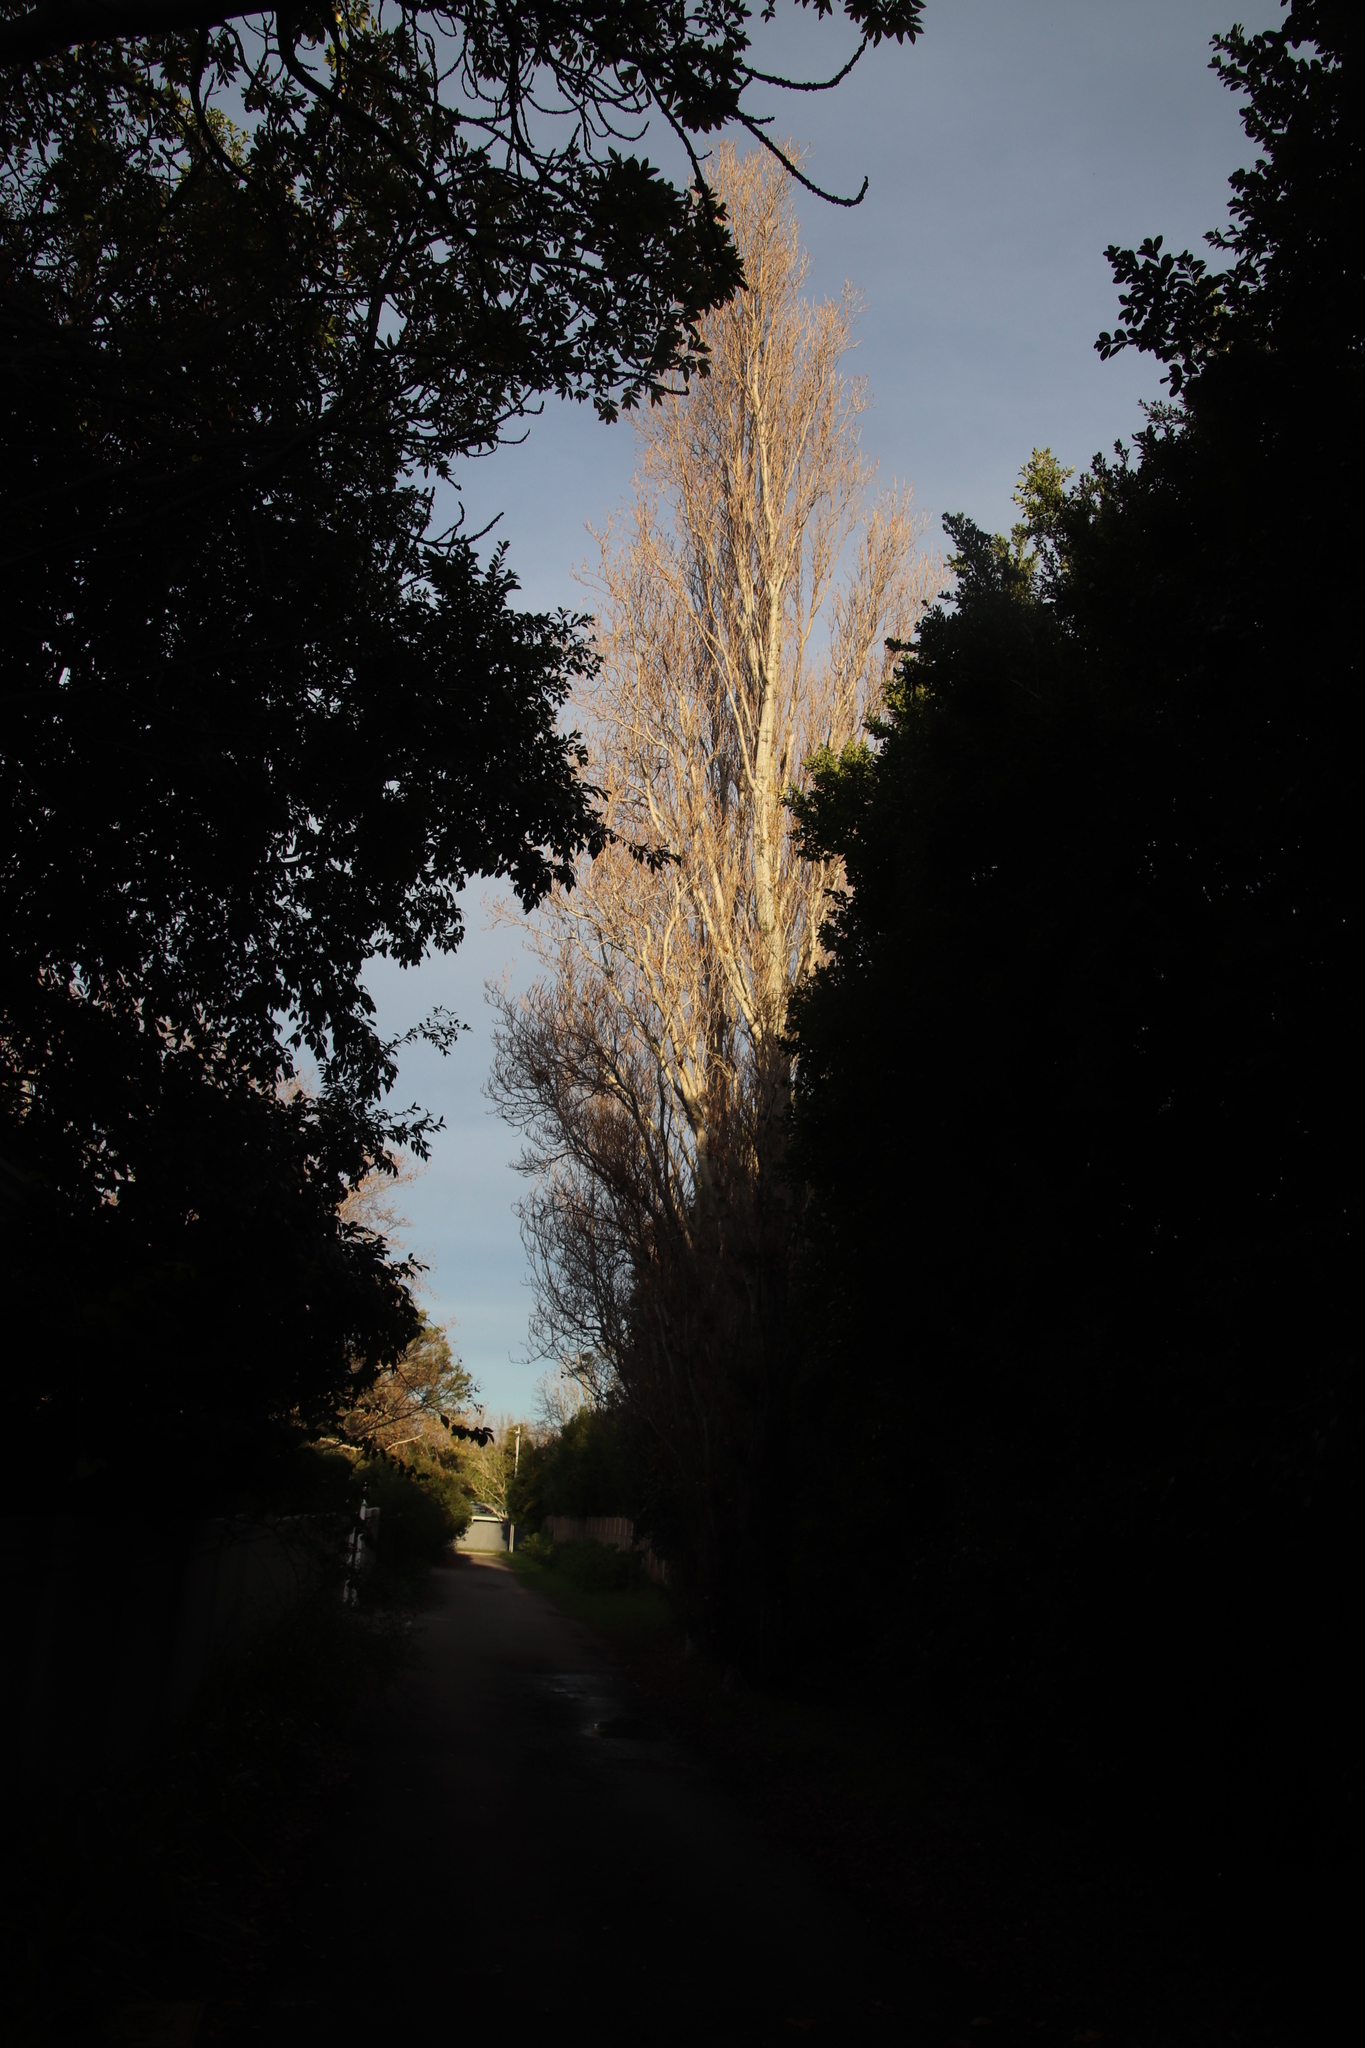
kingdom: Plantae
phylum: Tracheophyta
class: Magnoliopsida
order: Malpighiales
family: Salicaceae
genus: Populus
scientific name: Populus nigra
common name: Black poplar
